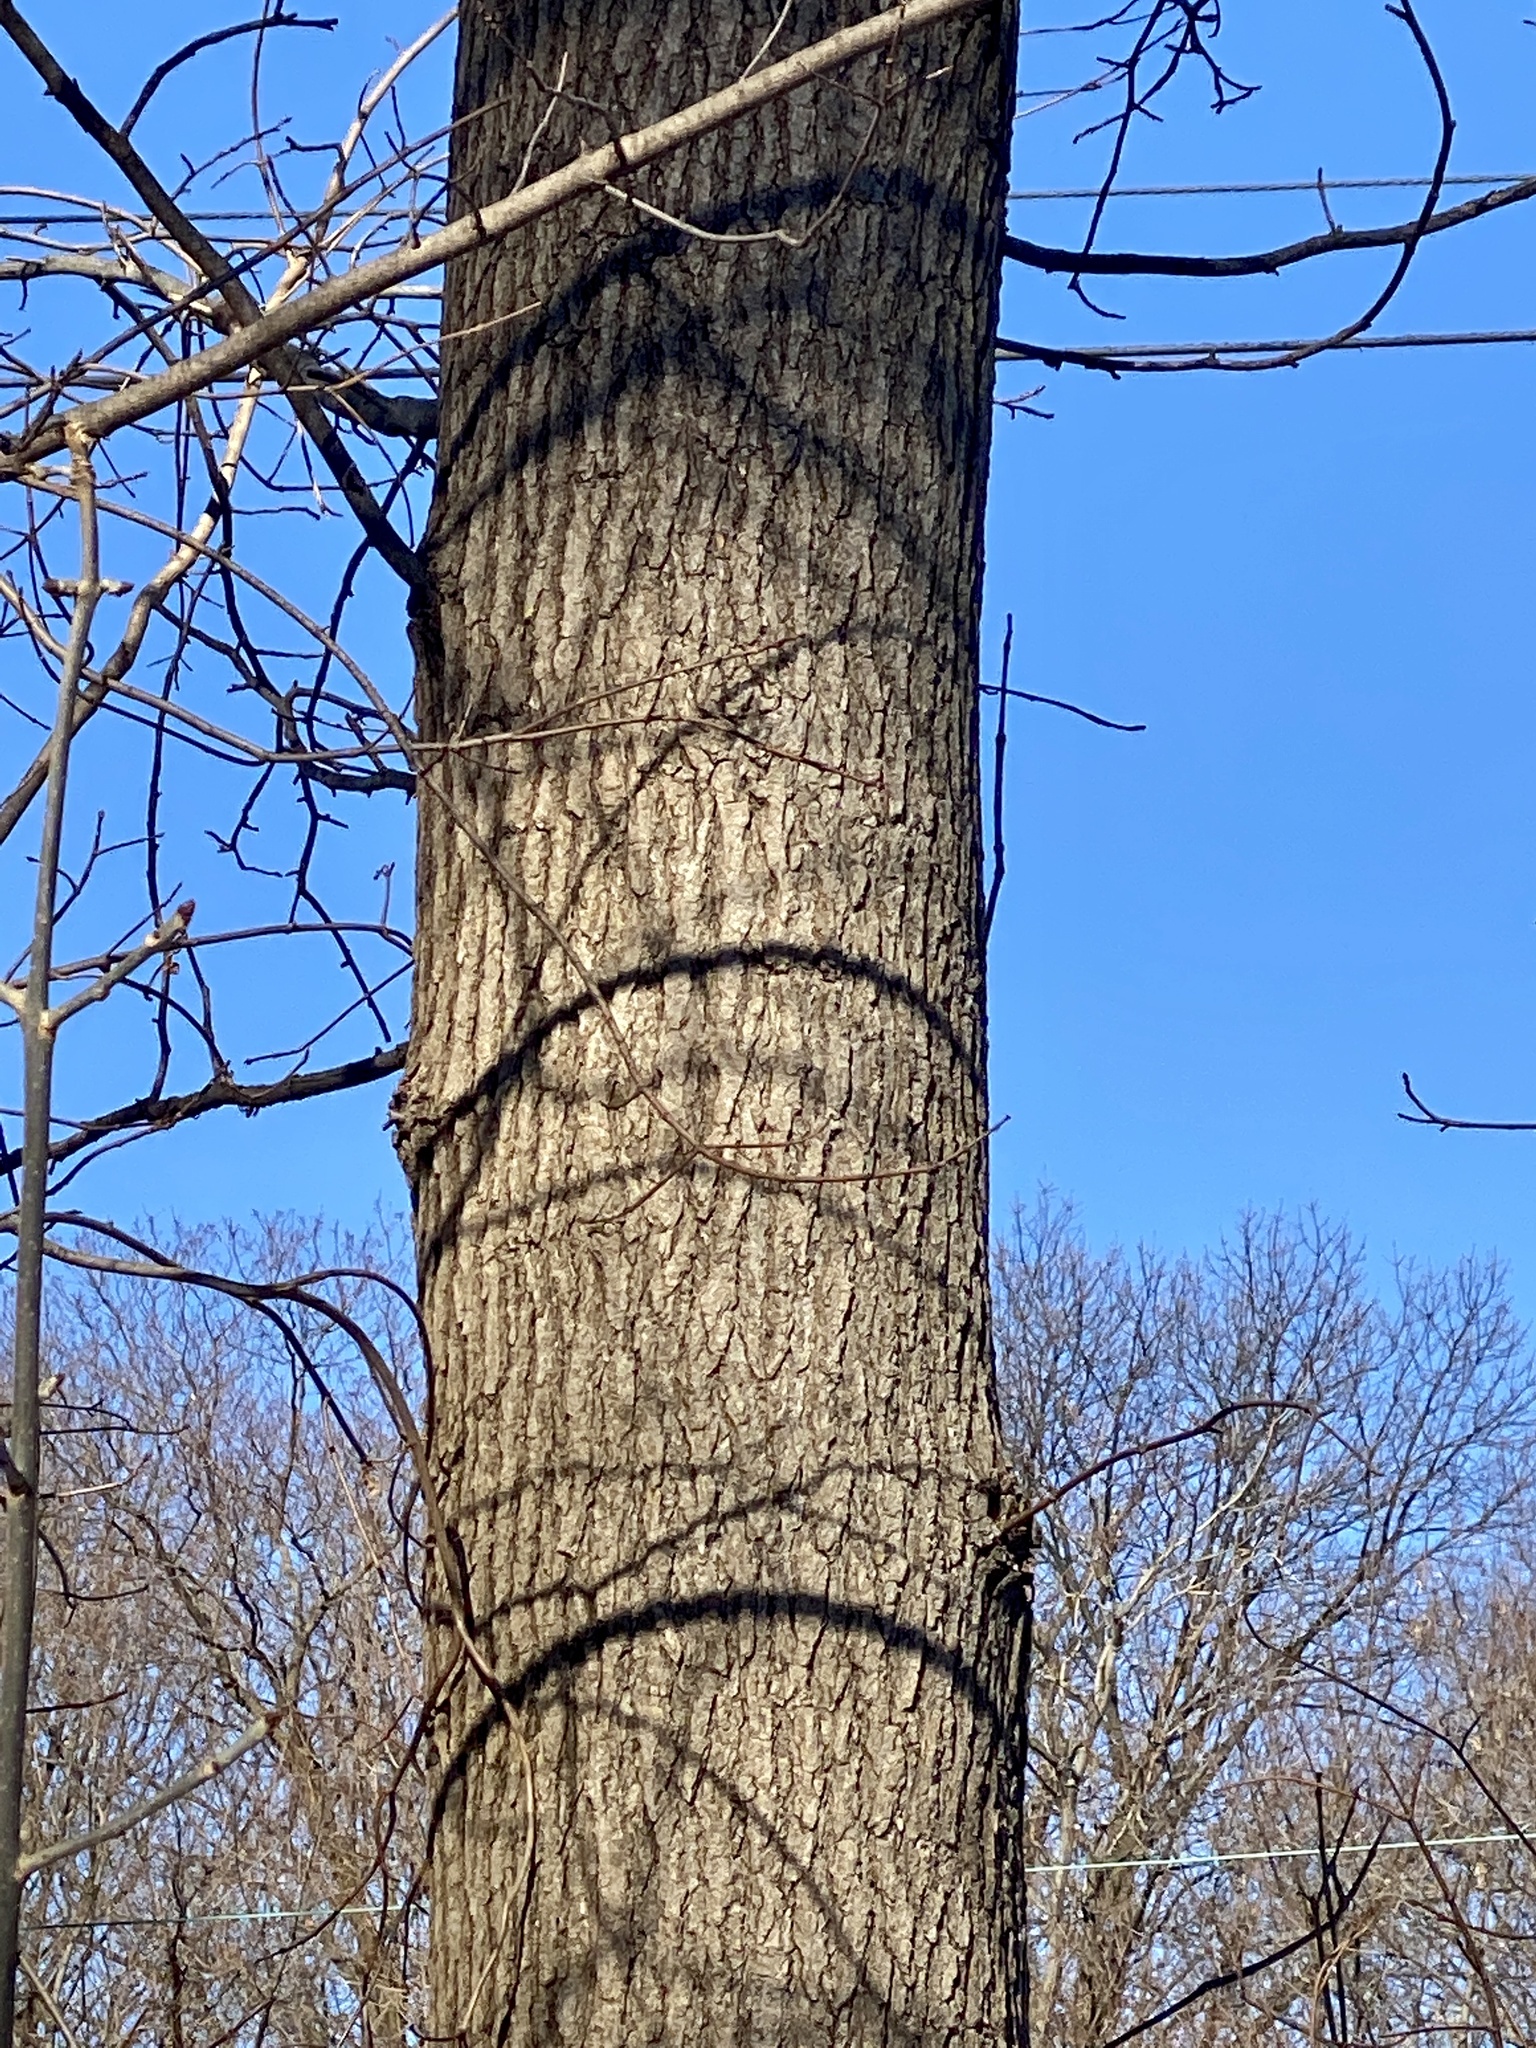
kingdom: Plantae
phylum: Tracheophyta
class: Magnoliopsida
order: Saxifragales
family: Altingiaceae
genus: Liquidambar
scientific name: Liquidambar styraciflua
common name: Sweet gum
